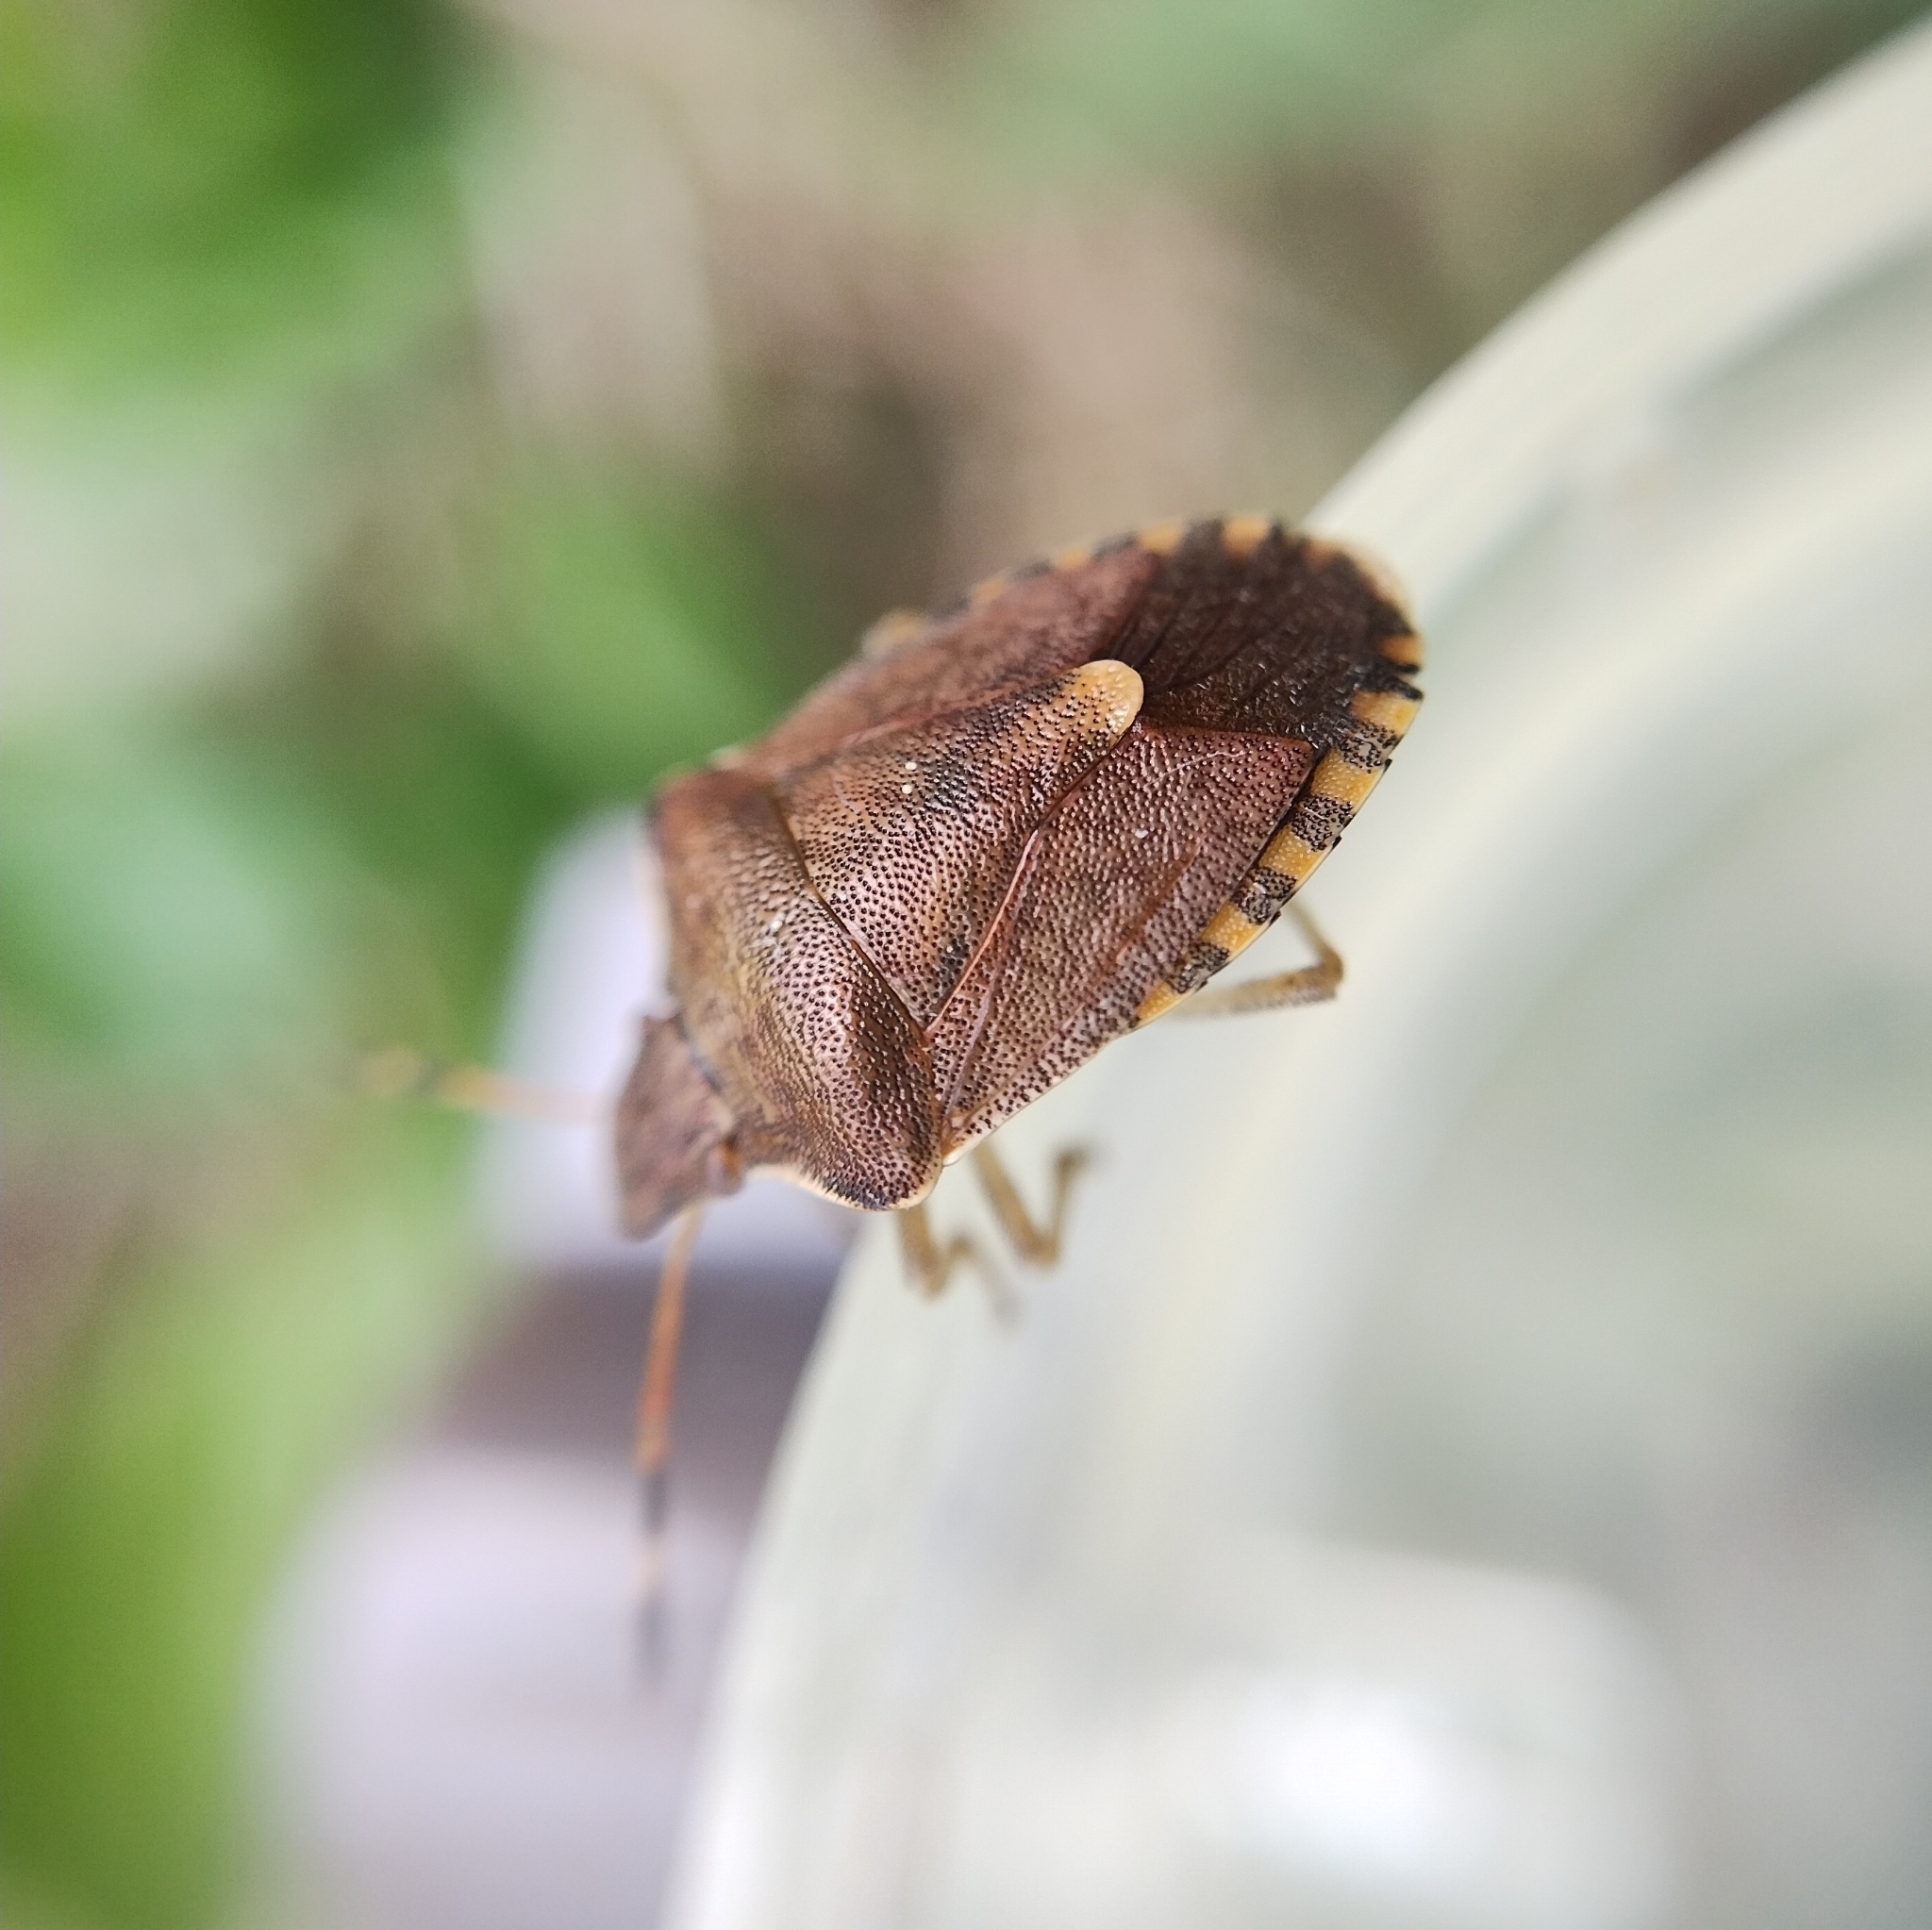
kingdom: Animalia
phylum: Arthropoda
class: Insecta
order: Hemiptera
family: Pentatomidae
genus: Holcostethus
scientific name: Holcostethus strictus
